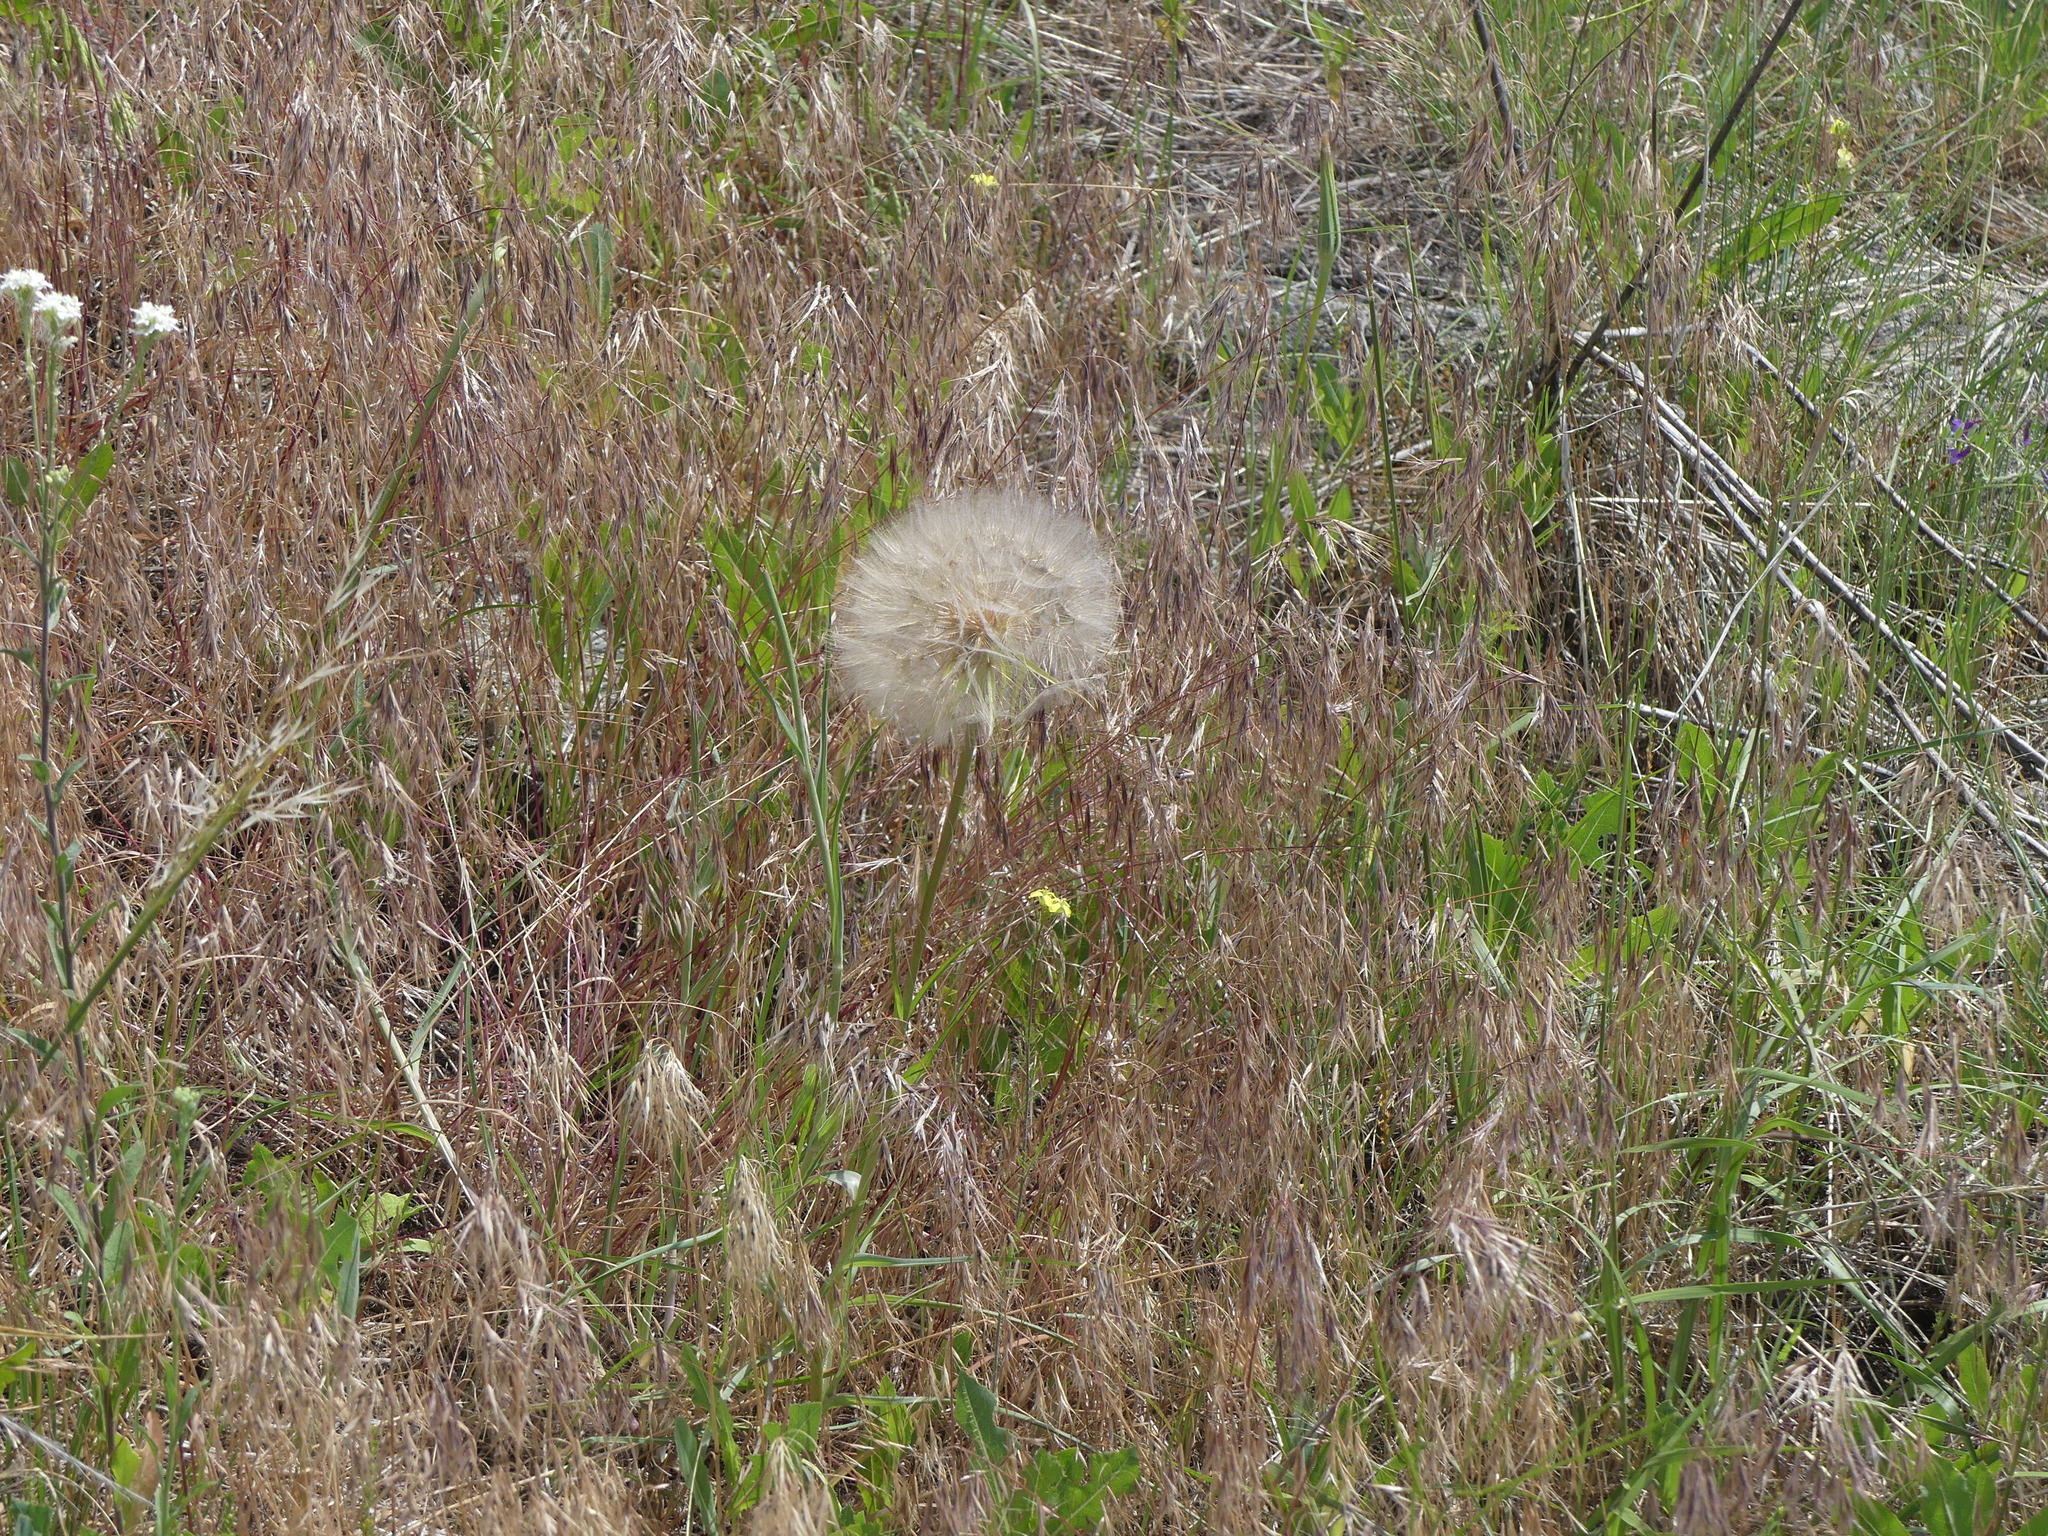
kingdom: Plantae
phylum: Tracheophyta
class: Magnoliopsida
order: Asterales
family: Asteraceae
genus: Tragopogon
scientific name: Tragopogon dubius
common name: Yellow salsify
